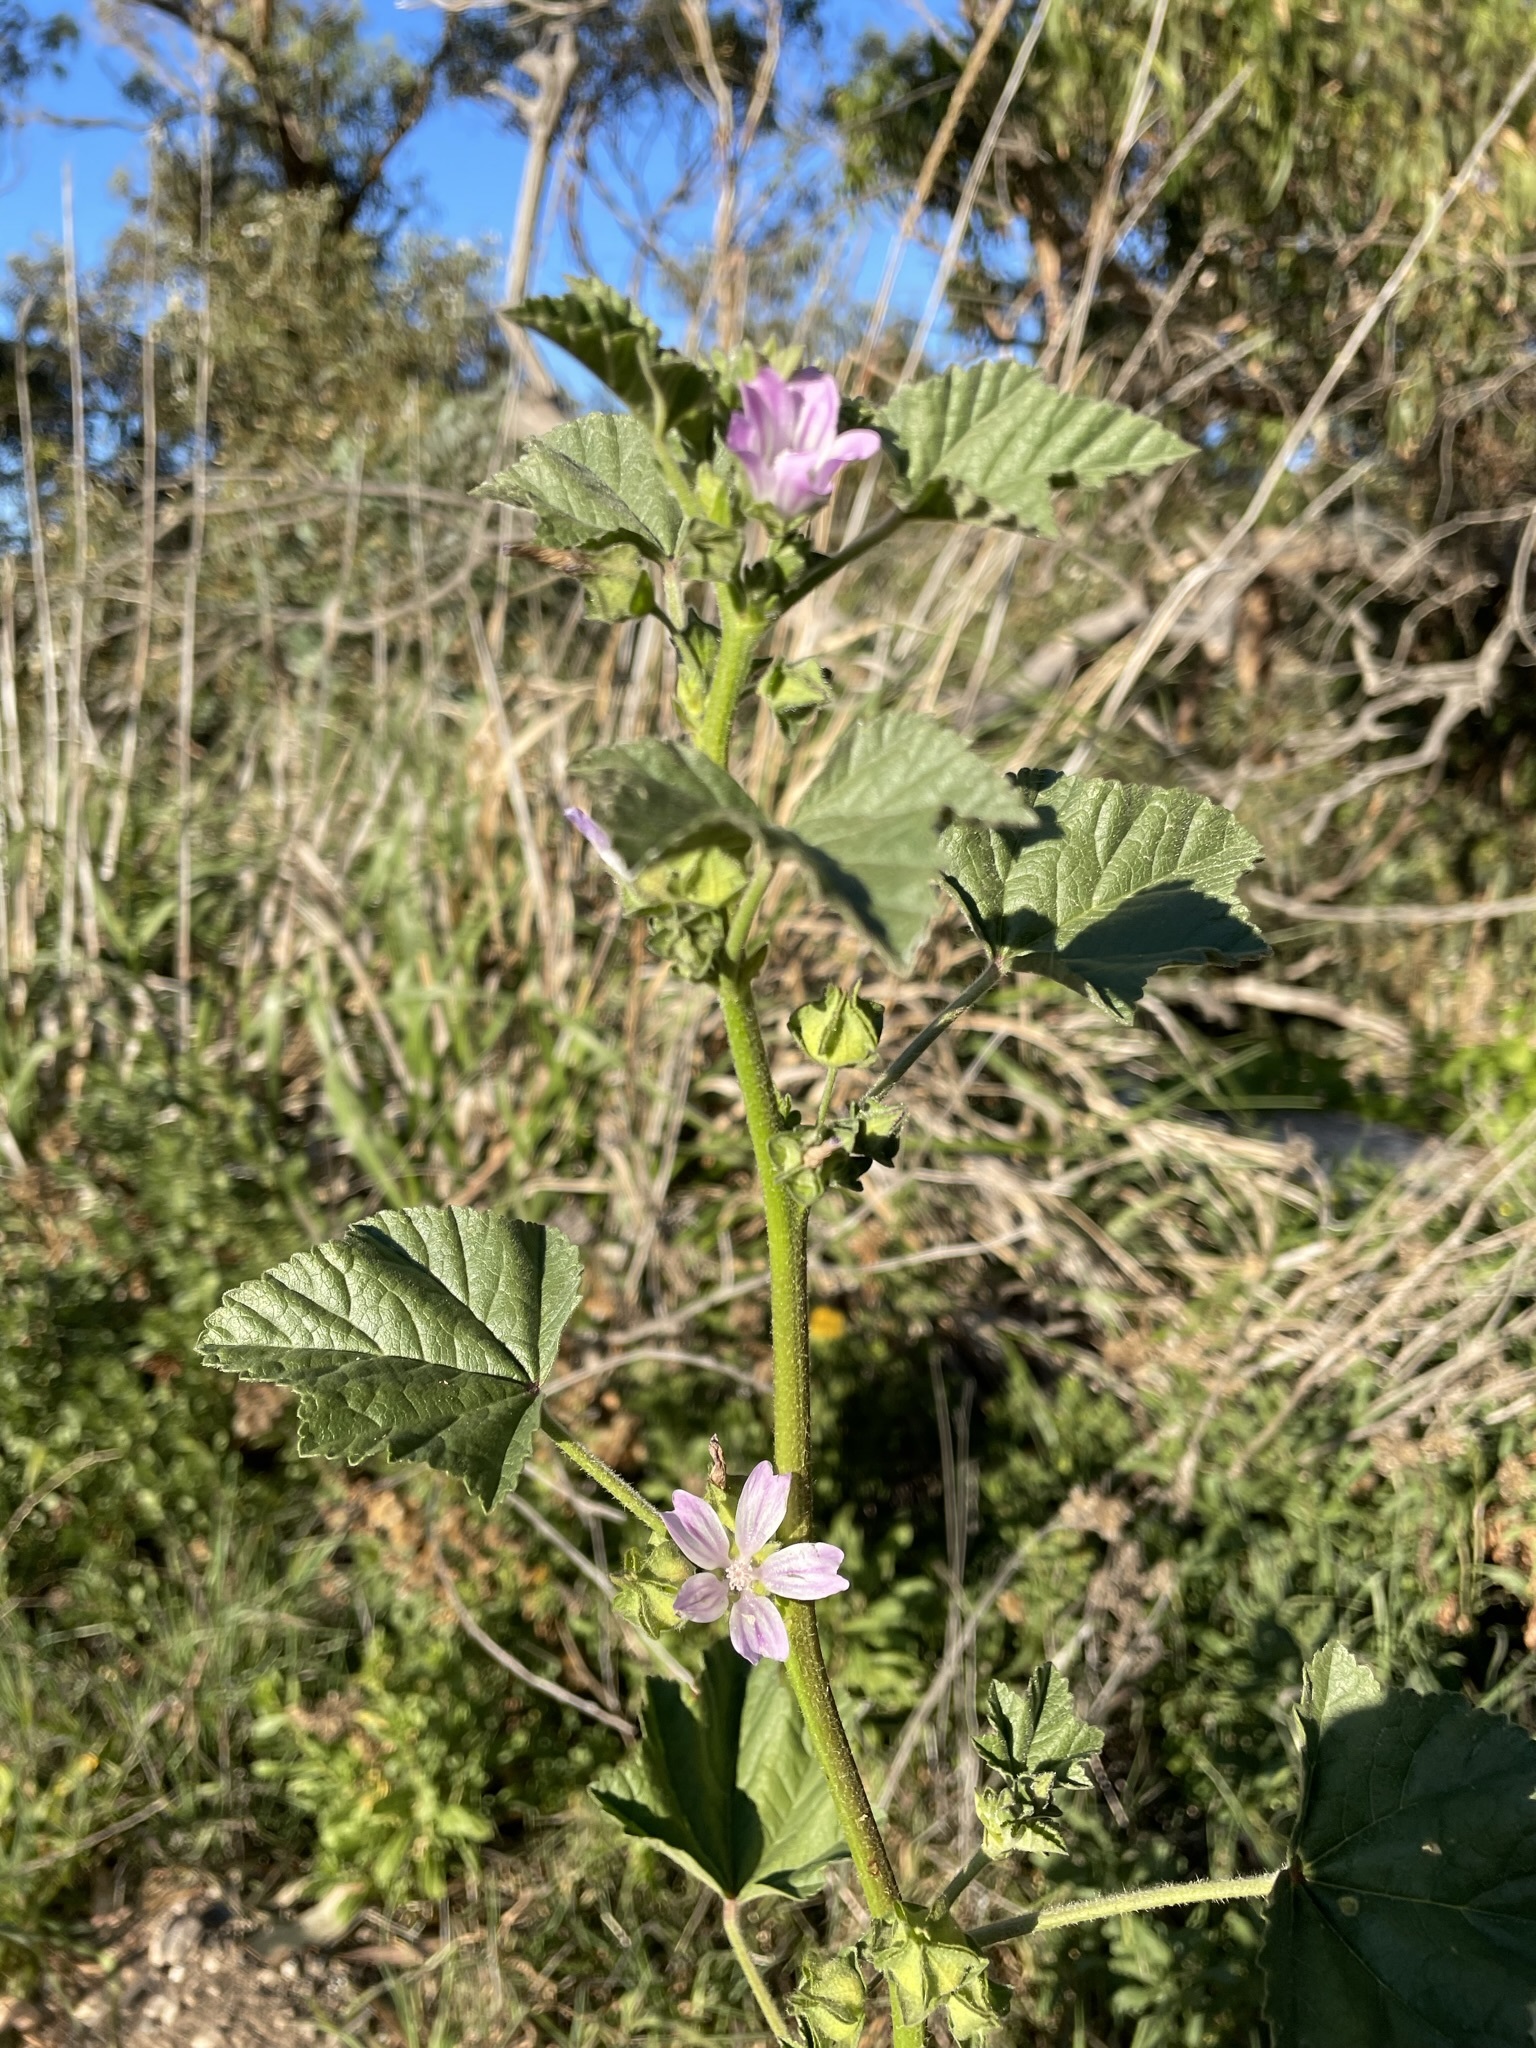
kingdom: Plantae
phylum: Tracheophyta
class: Magnoliopsida
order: Malvales
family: Malvaceae
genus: Malva
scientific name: Malva multiflora
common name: Cheeseweed
